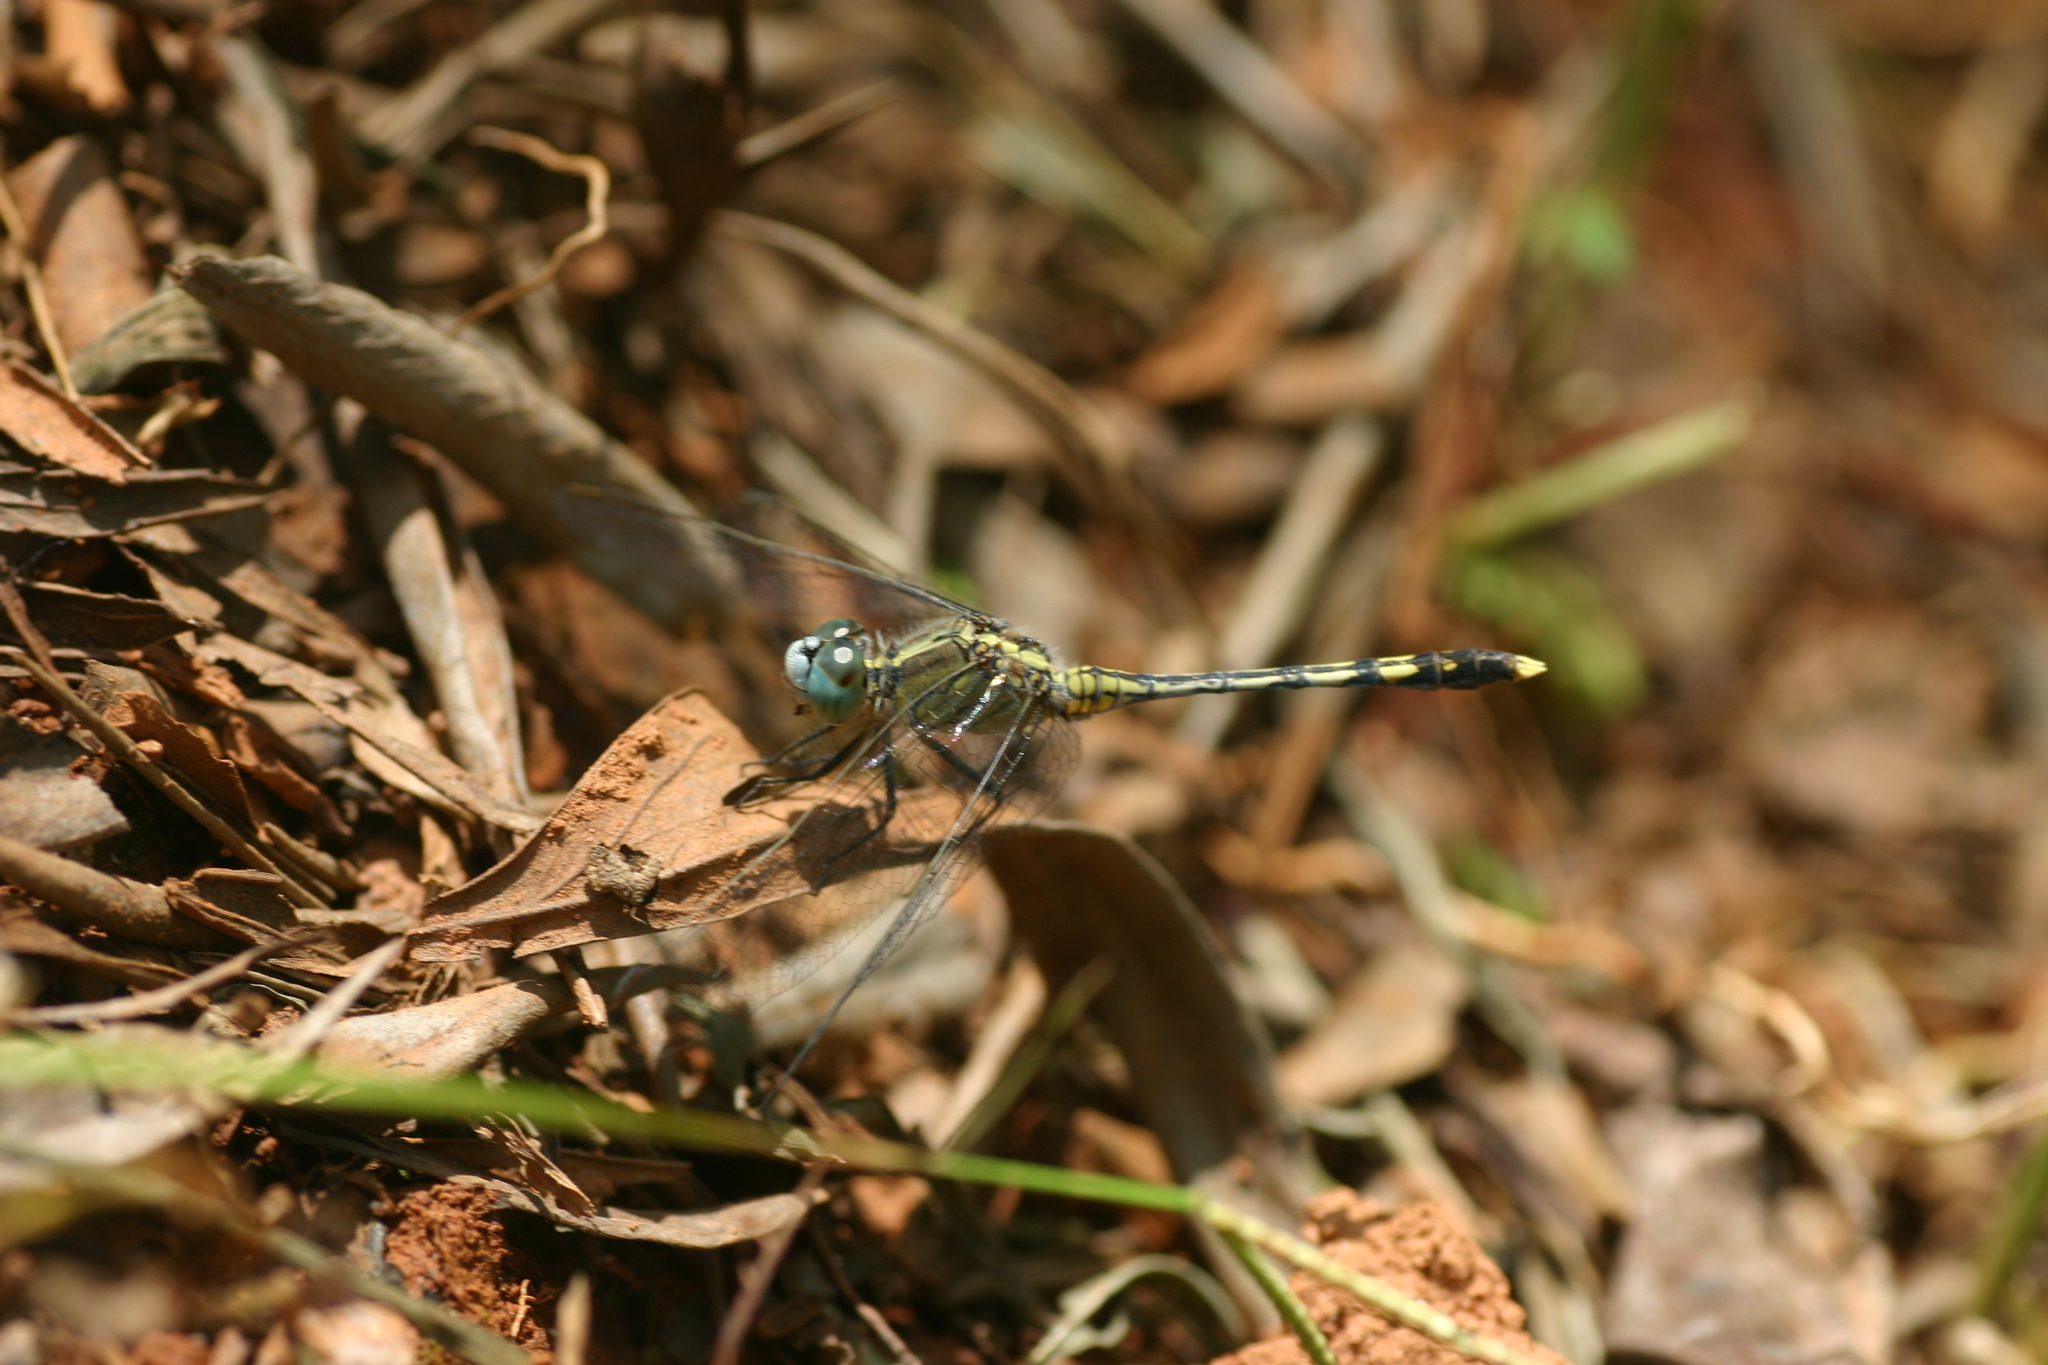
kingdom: Animalia
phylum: Arthropoda
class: Insecta
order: Odonata
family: Libellulidae
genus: Diplacodes
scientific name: Diplacodes trivialis
